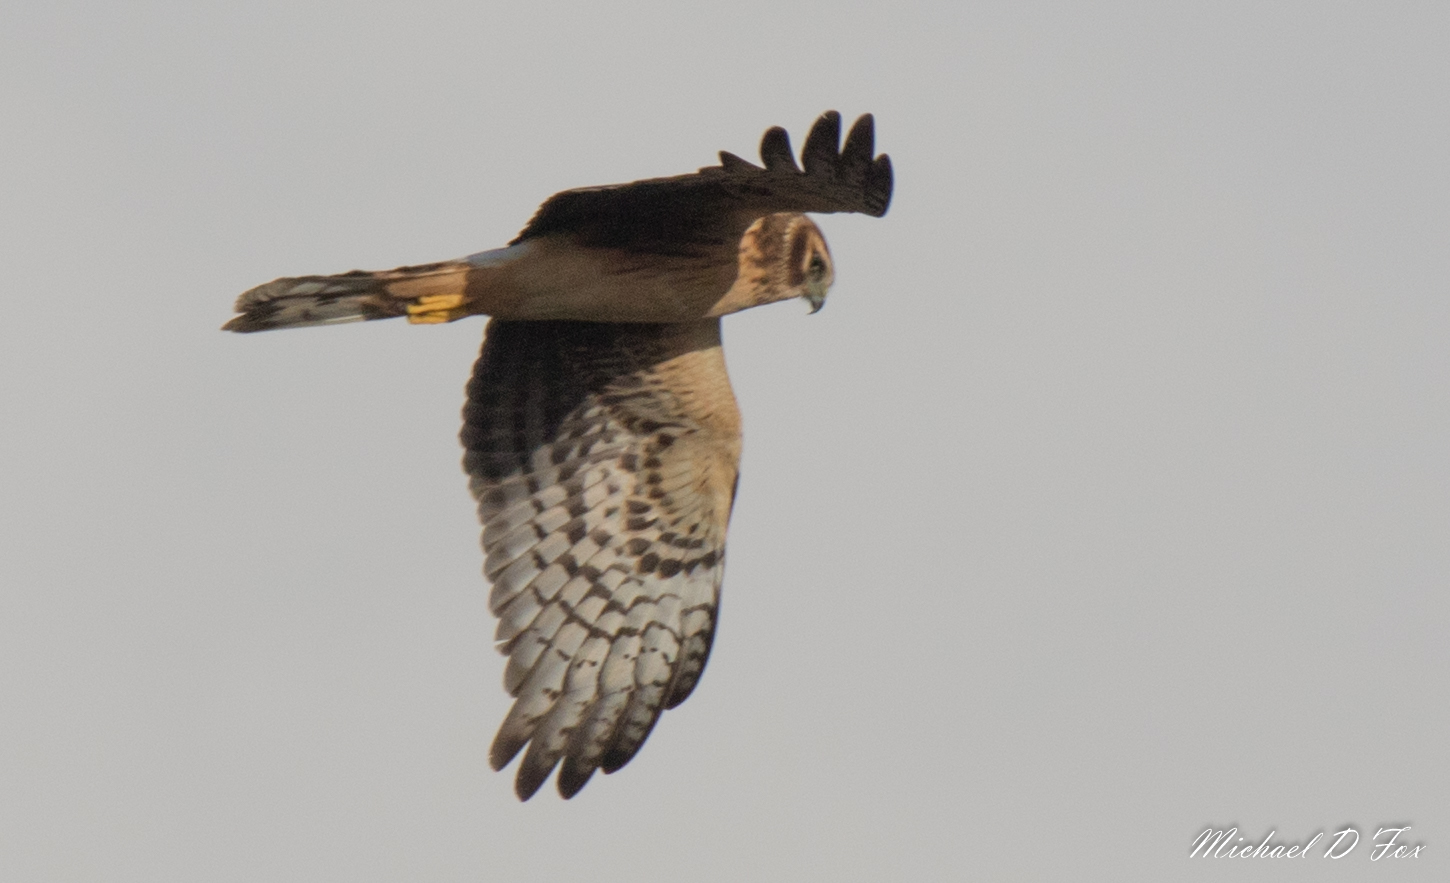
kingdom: Animalia
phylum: Chordata
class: Aves
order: Accipitriformes
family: Accipitridae
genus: Circus
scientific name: Circus cyaneus
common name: Hen harrier
